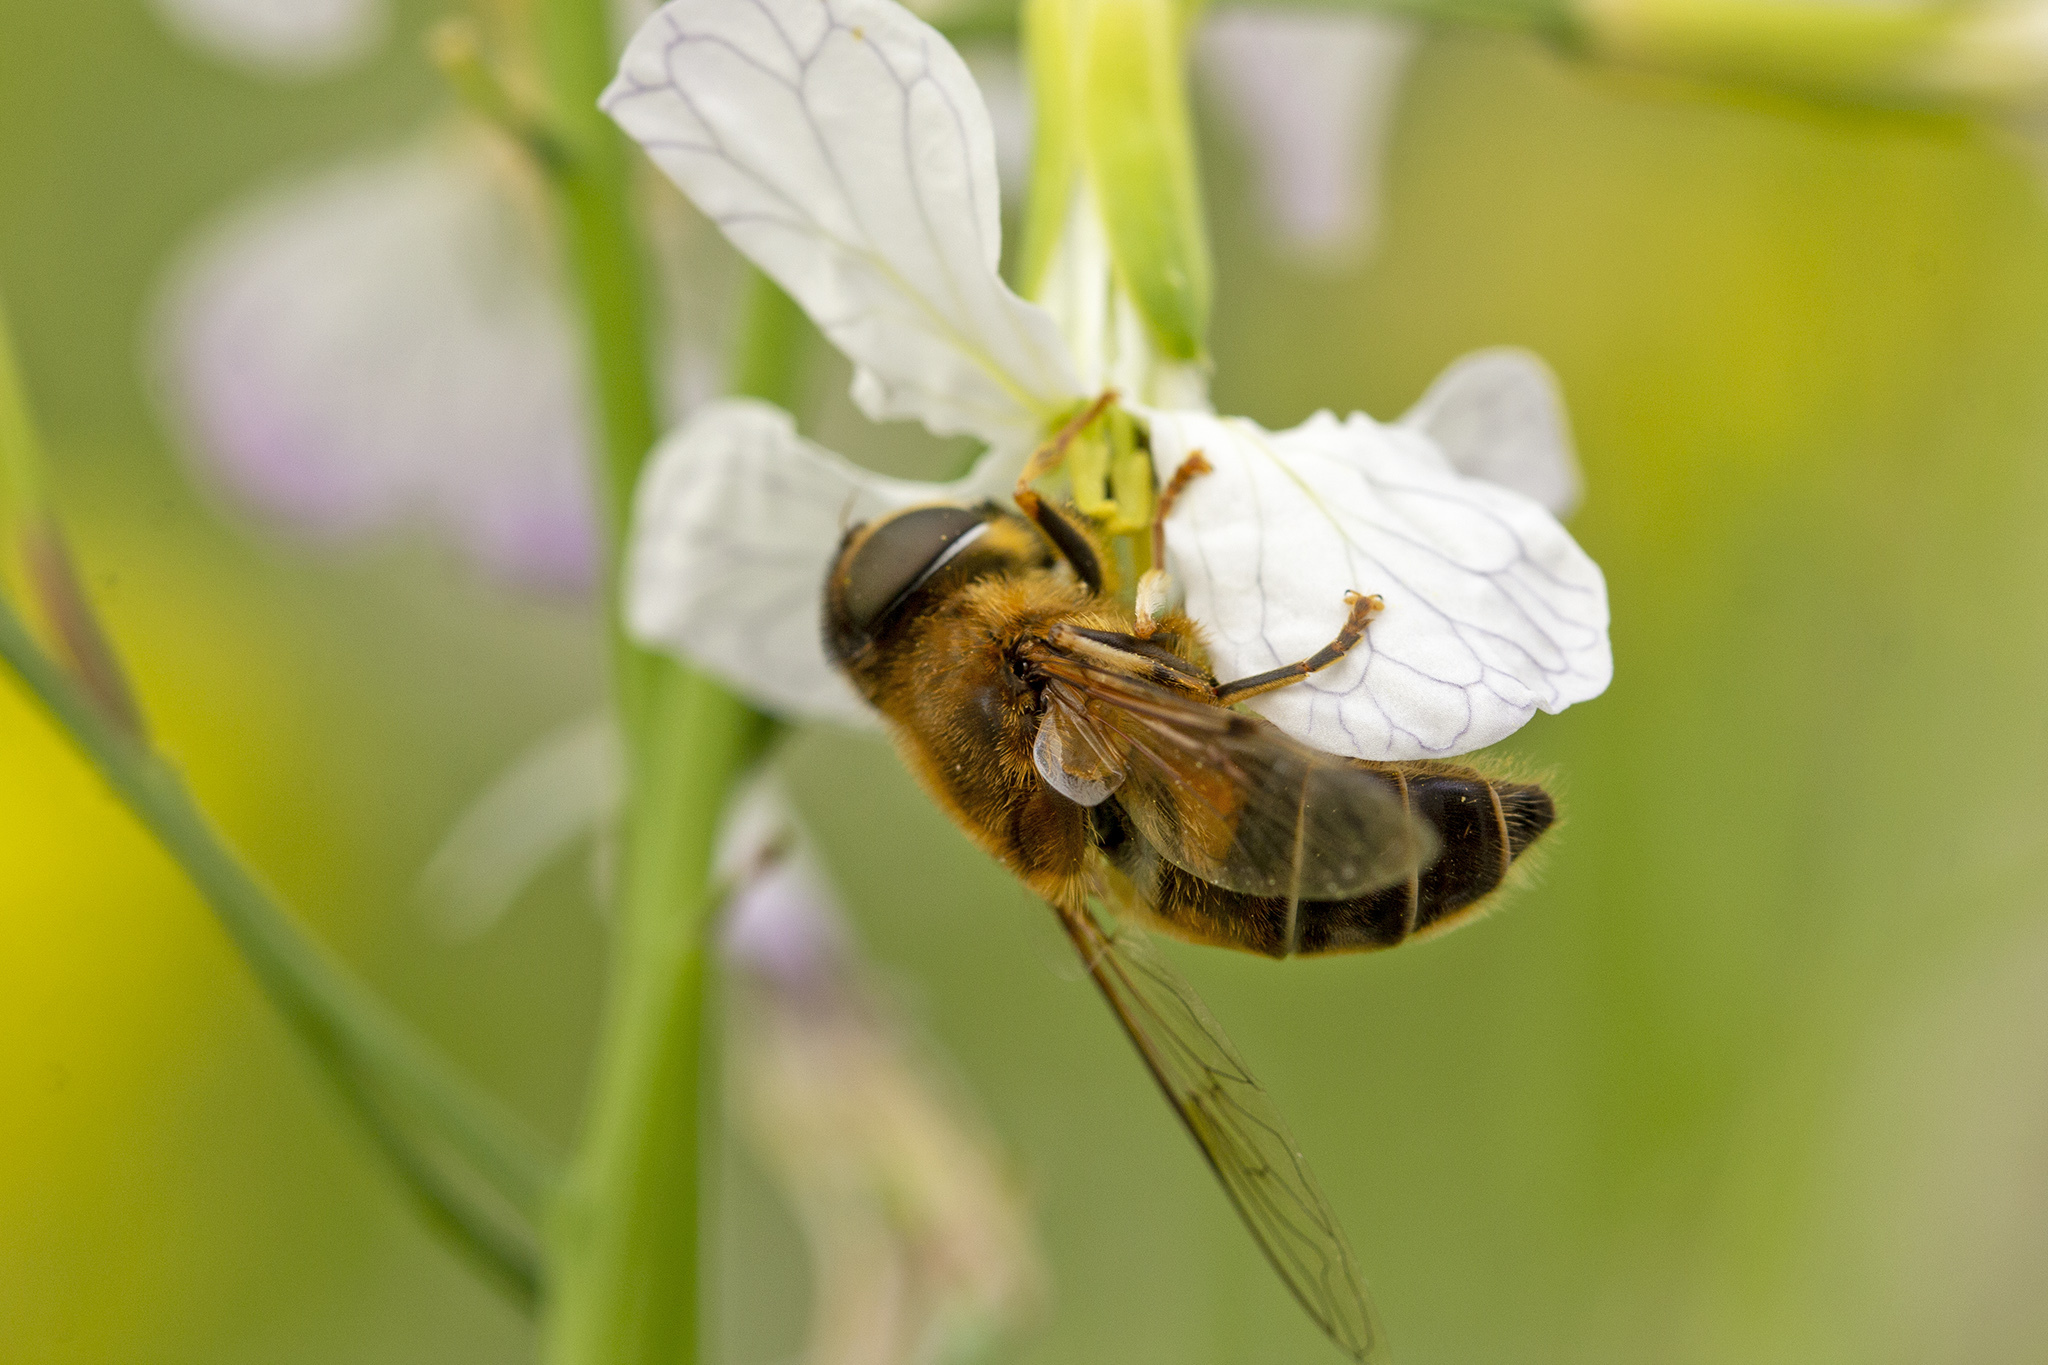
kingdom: Animalia
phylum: Arthropoda
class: Insecta
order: Diptera
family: Syrphidae
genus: Eristalis
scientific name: Eristalis pertinax
